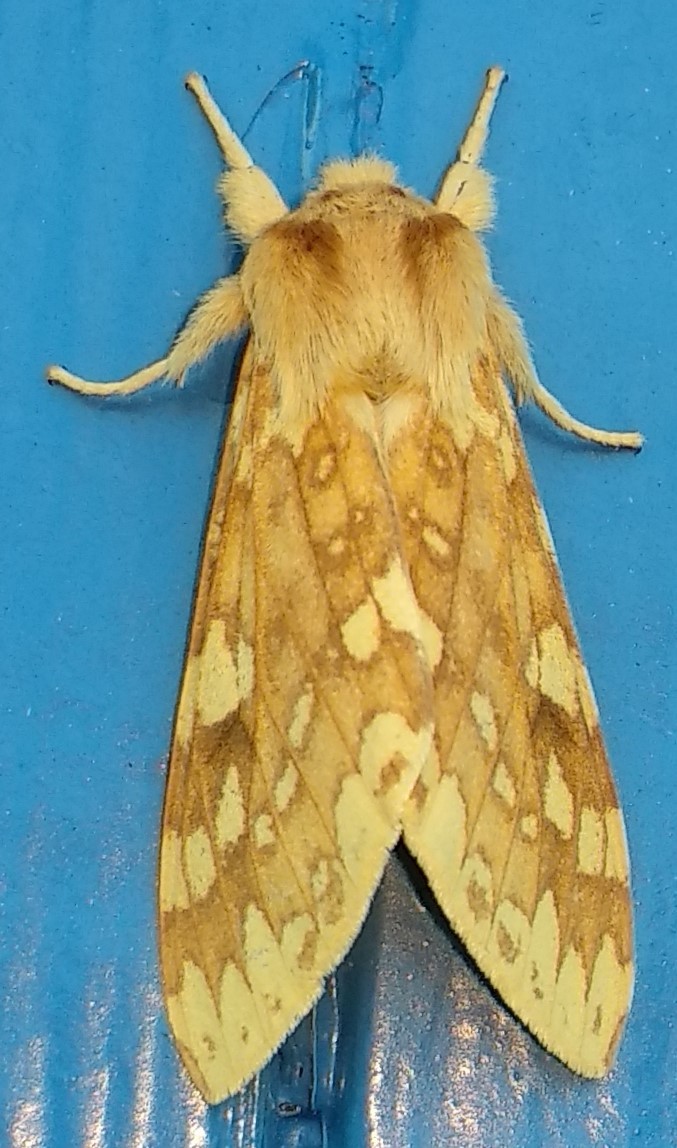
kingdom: Animalia
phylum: Arthropoda
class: Insecta
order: Lepidoptera
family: Erebidae
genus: Lophocampa
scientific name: Lophocampa maculata
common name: Spotted tussock moth
